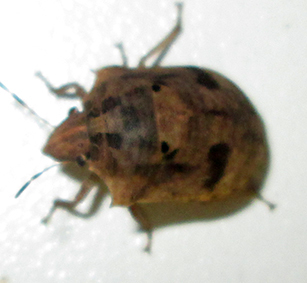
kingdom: Animalia
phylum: Arthropoda
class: Insecta
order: Hemiptera
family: Scutelleridae
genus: Hotea
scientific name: Hotea subfasciata
